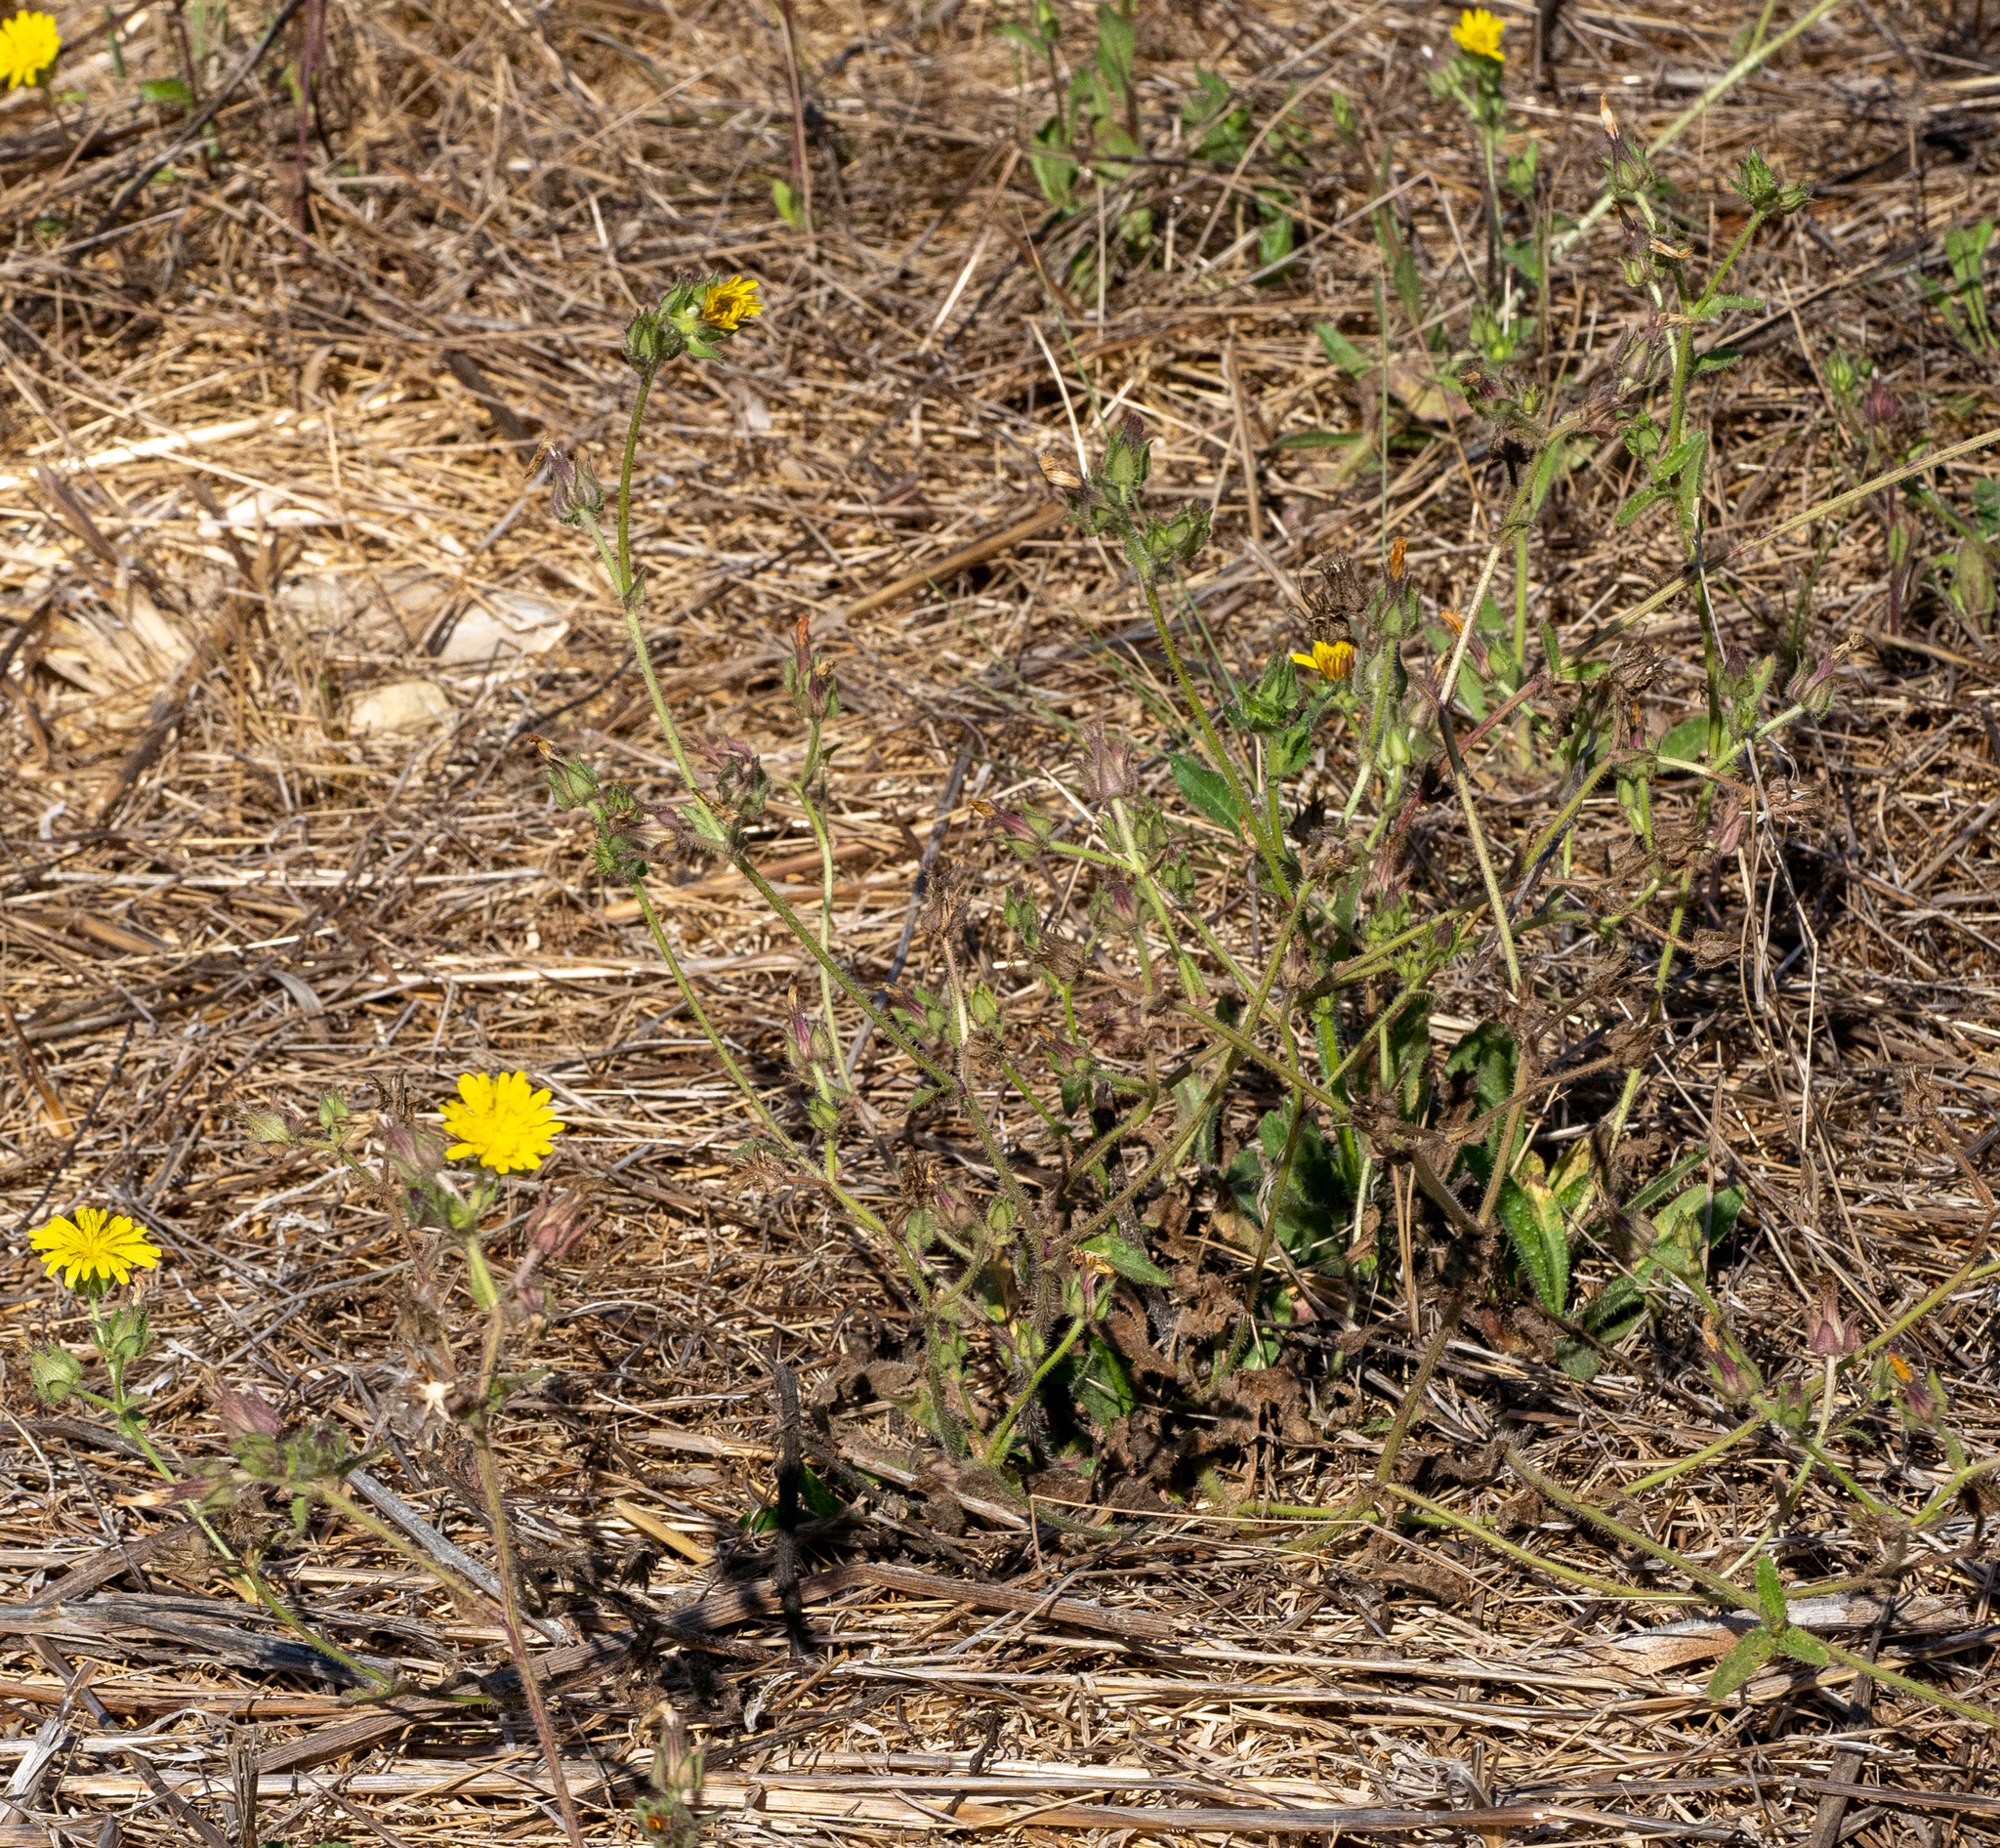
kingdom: Plantae
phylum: Tracheophyta
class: Magnoliopsida
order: Asterales
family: Asteraceae
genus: Helminthotheca
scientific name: Helminthotheca echioides
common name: Ox-tongue
